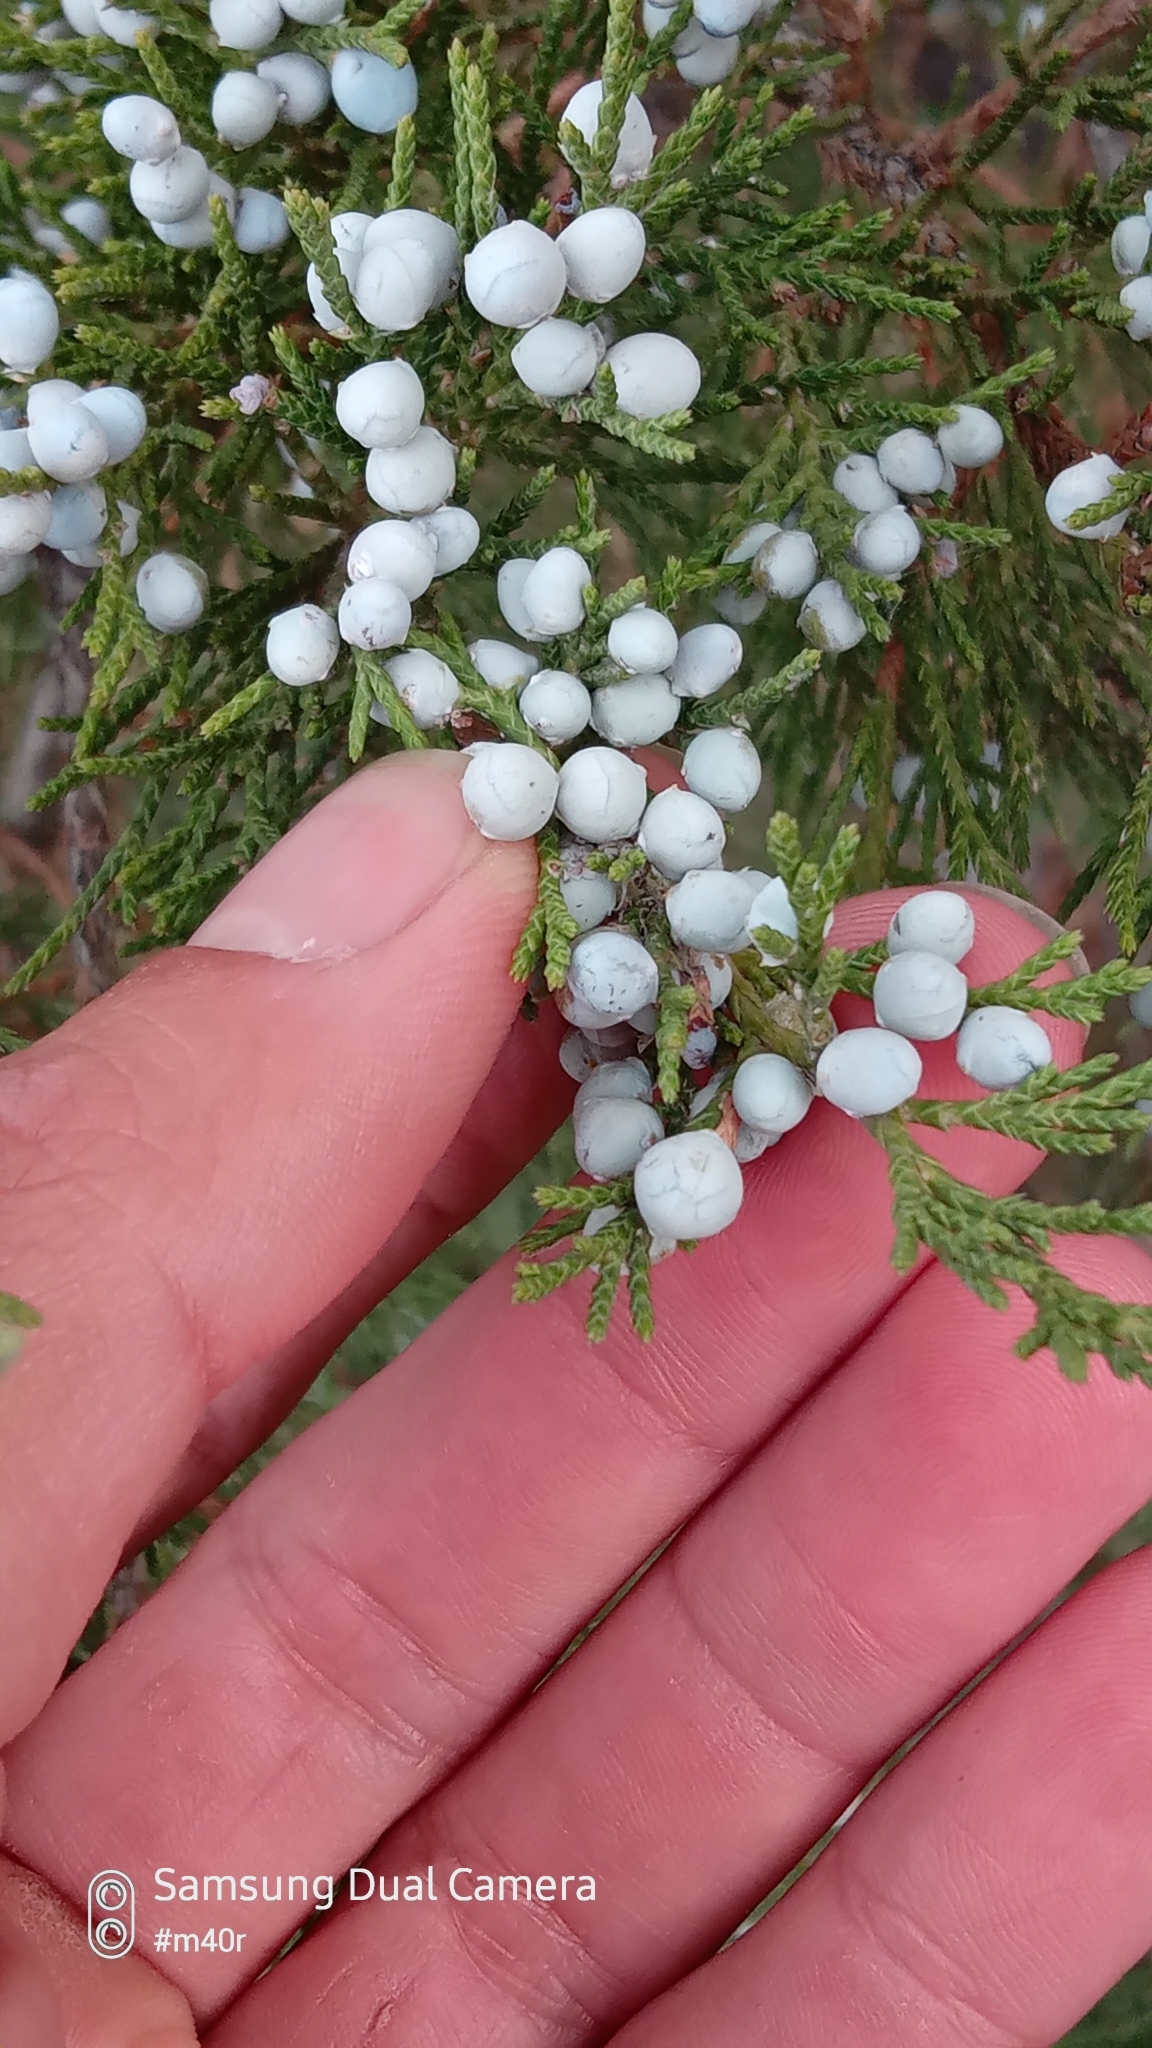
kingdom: Plantae
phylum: Tracheophyta
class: Pinopsida
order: Pinales
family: Cupressaceae
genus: Juniperus
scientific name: Juniperus virginiana
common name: Red juniper
